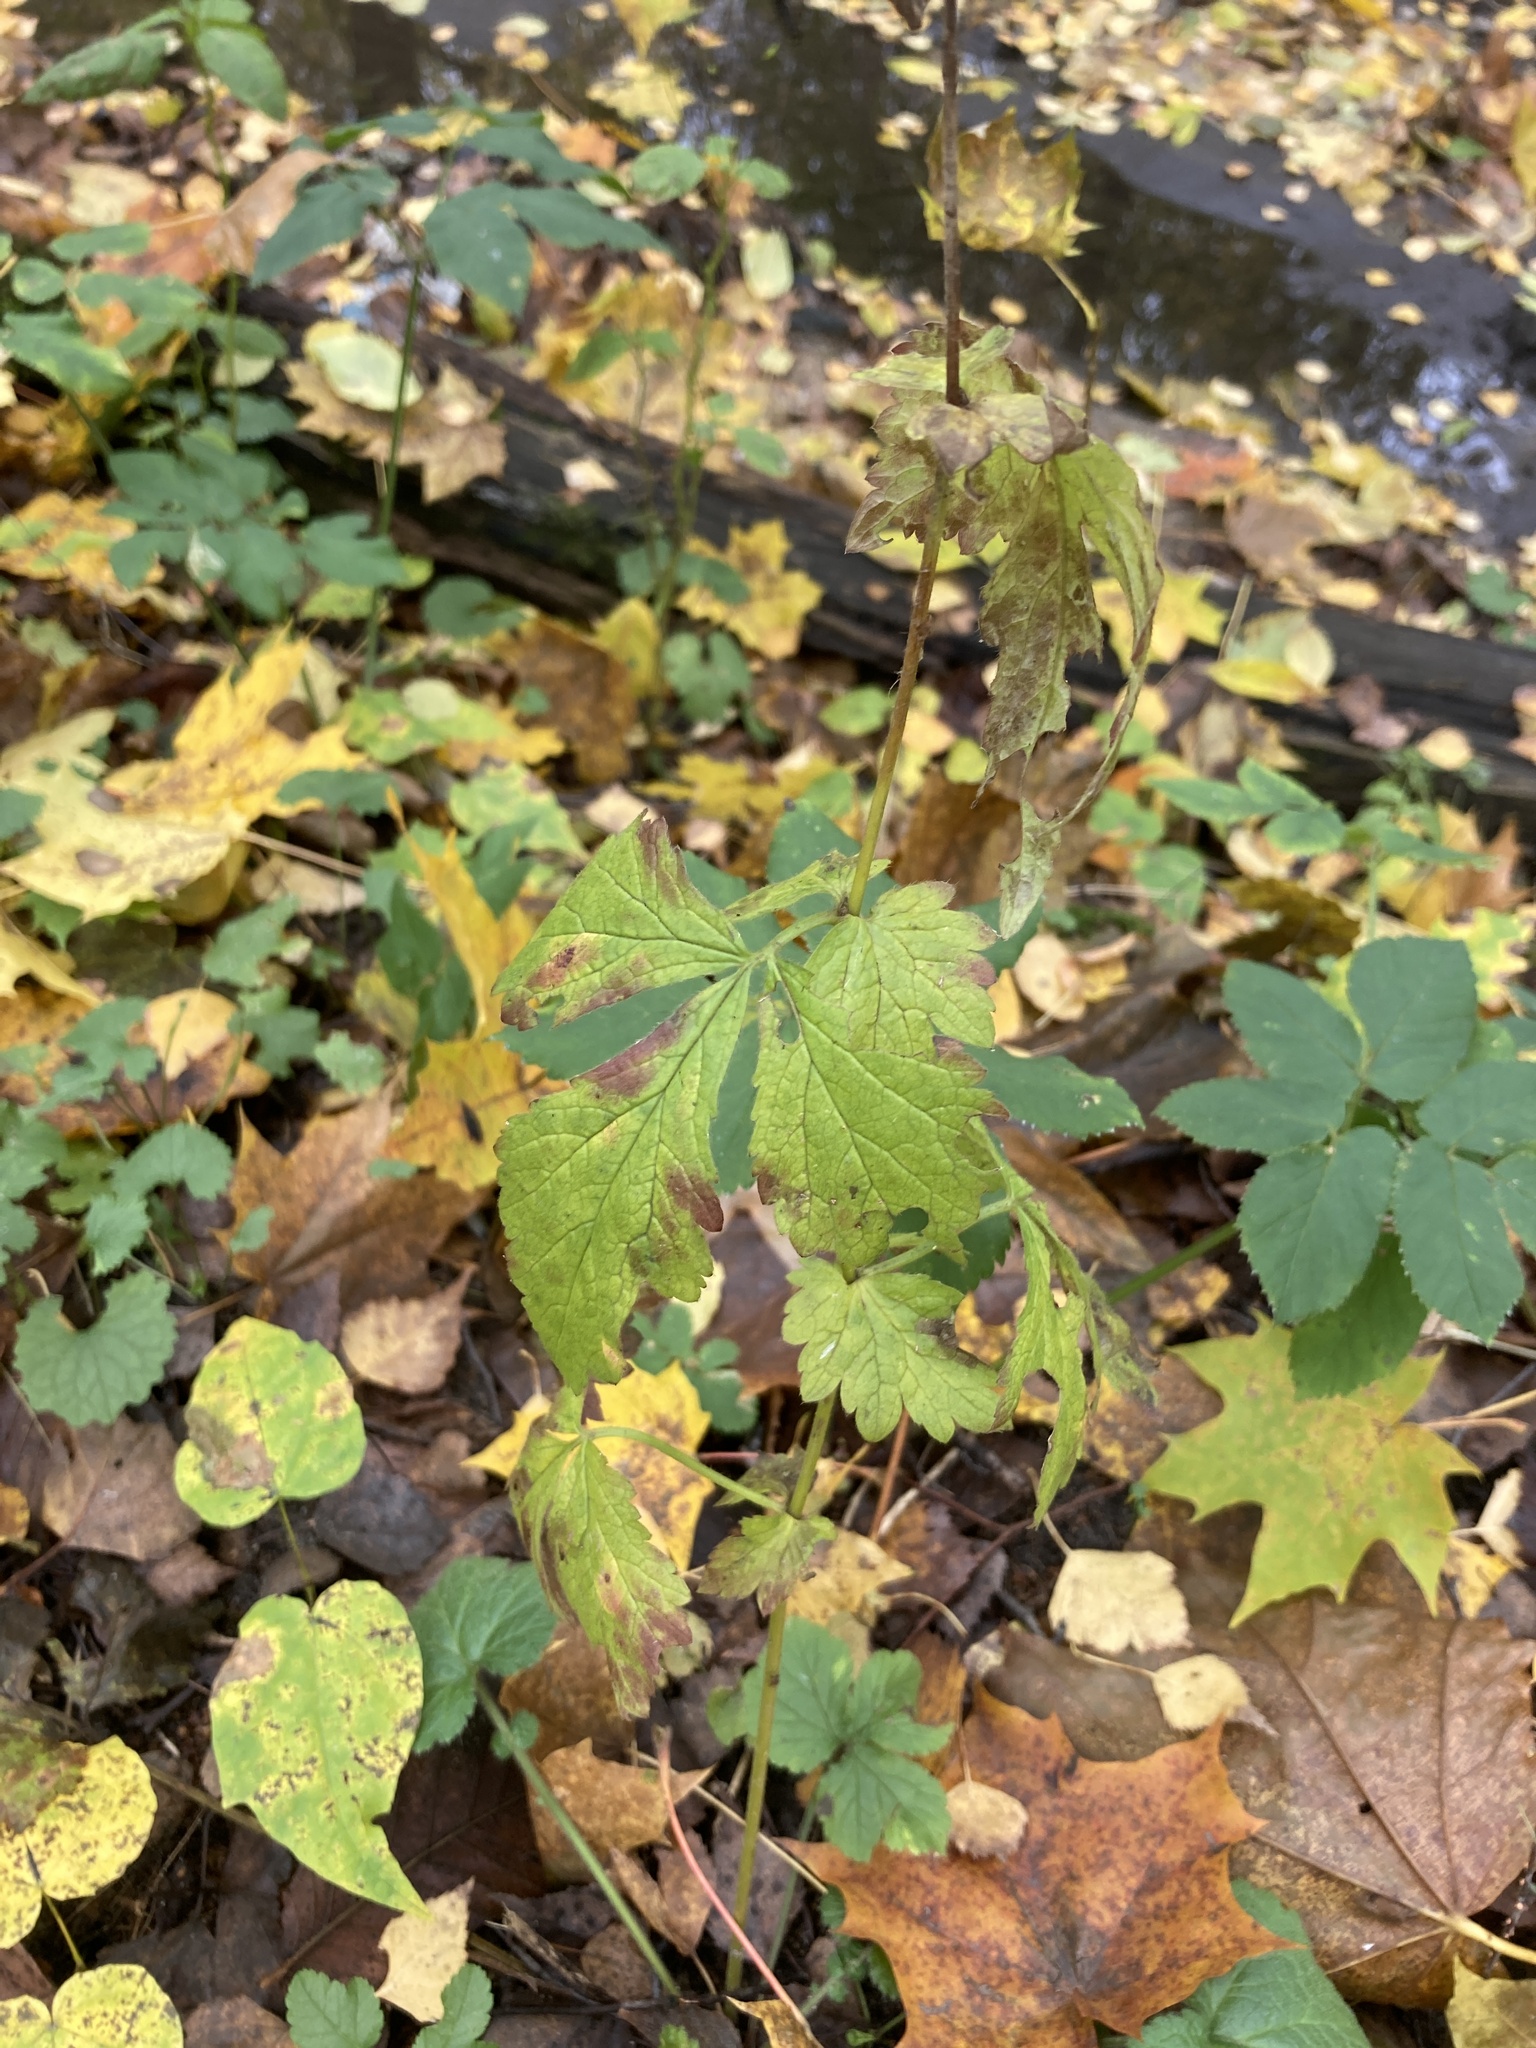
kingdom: Plantae
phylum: Tracheophyta
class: Magnoliopsida
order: Rosales
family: Rosaceae
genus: Geum
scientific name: Geum urbanum
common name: Wood avens
